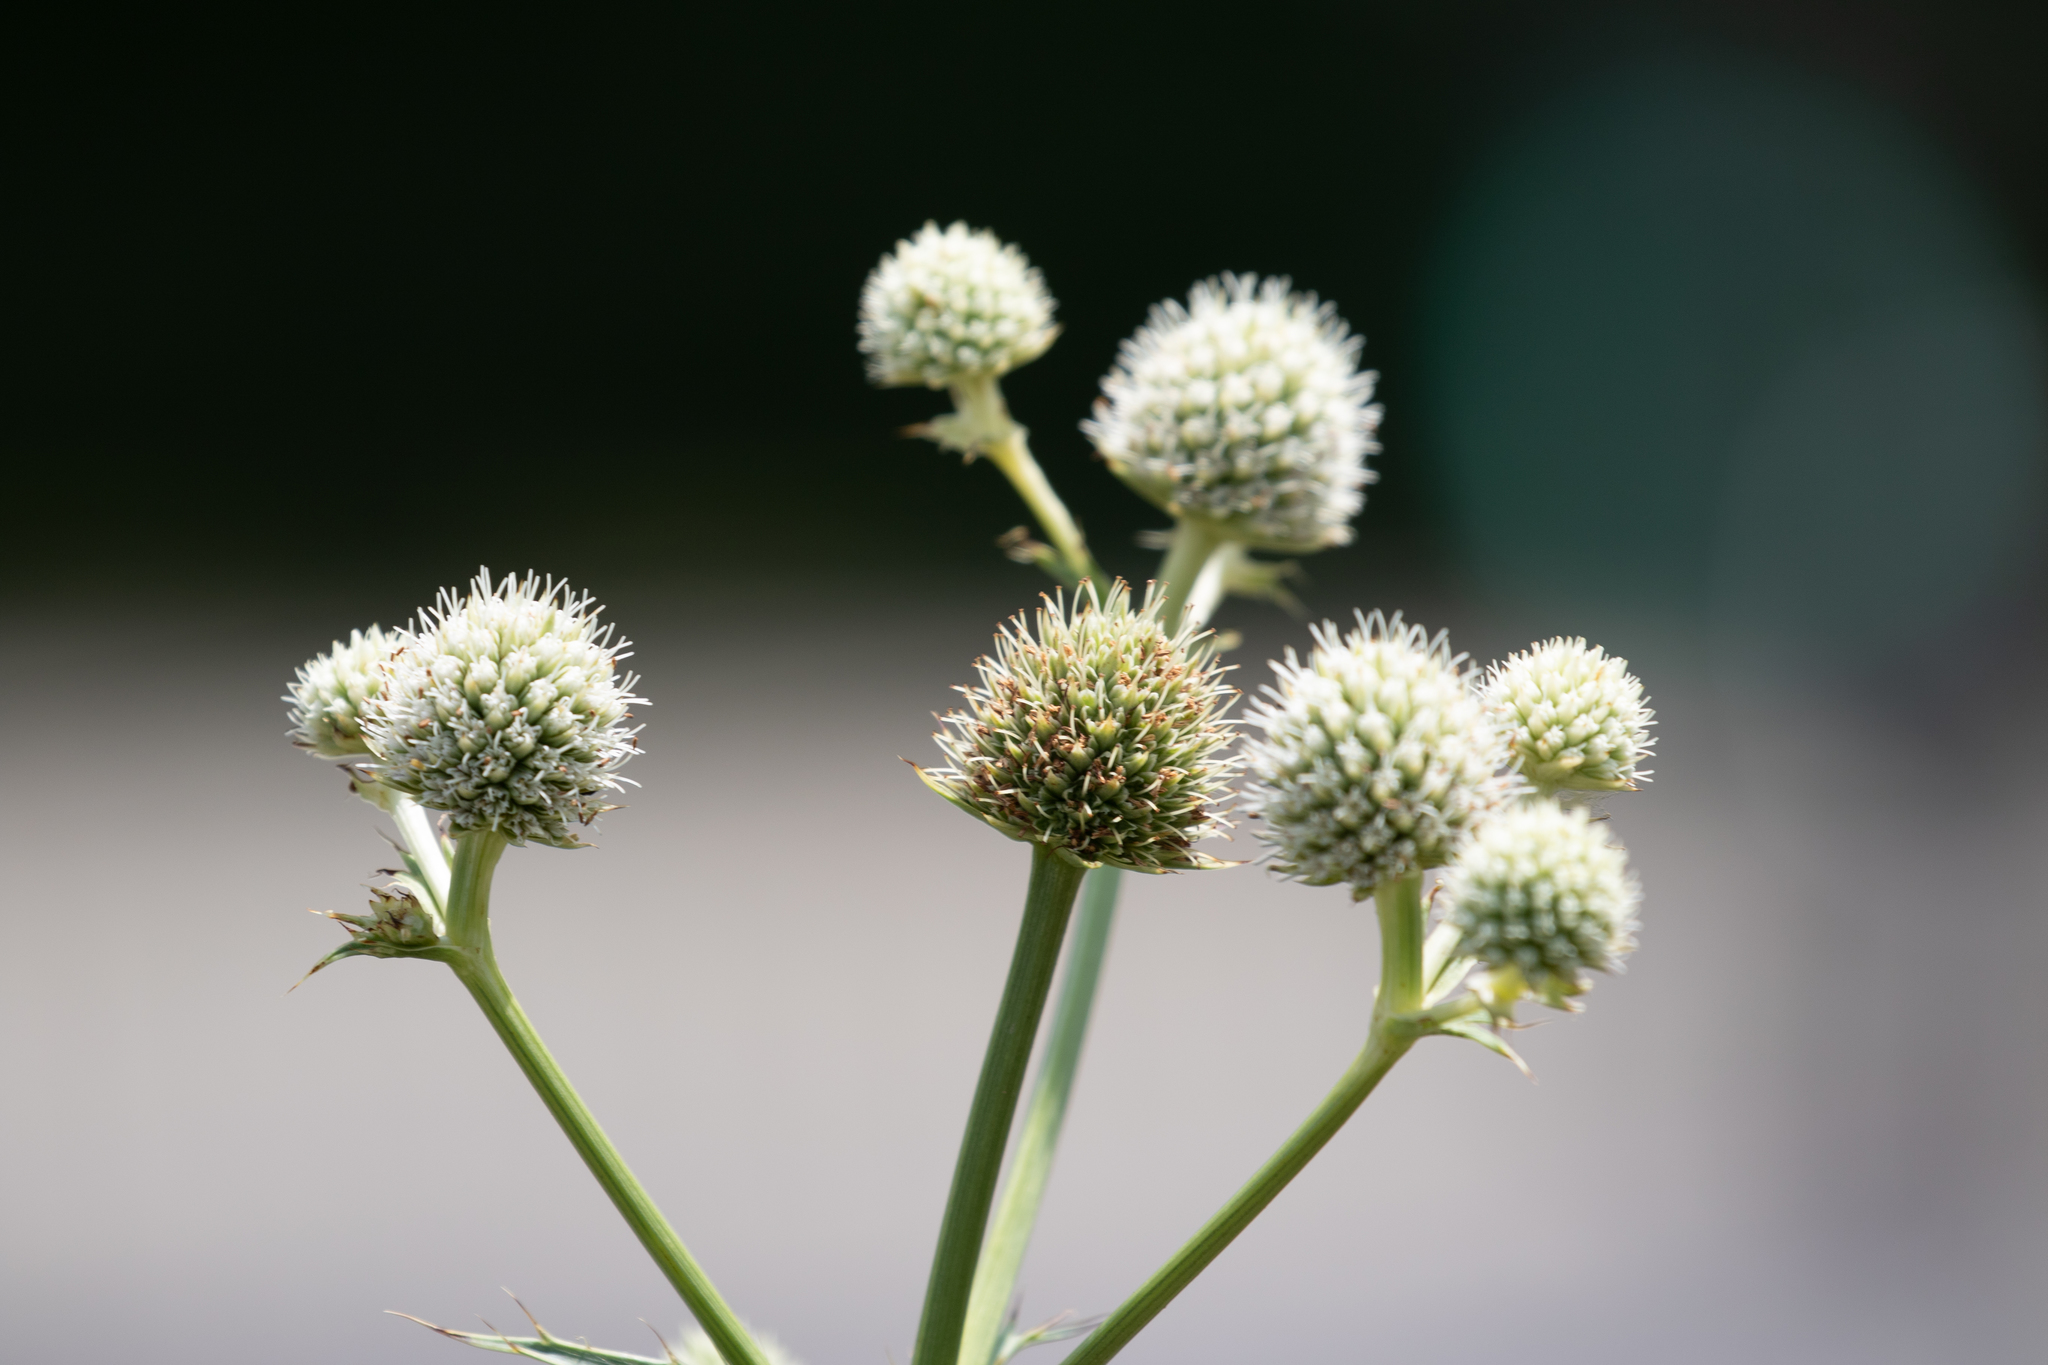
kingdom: Plantae
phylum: Tracheophyta
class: Magnoliopsida
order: Apiales
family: Apiaceae
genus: Eryngium
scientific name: Eryngium yuccifolium
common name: Button eryngo
